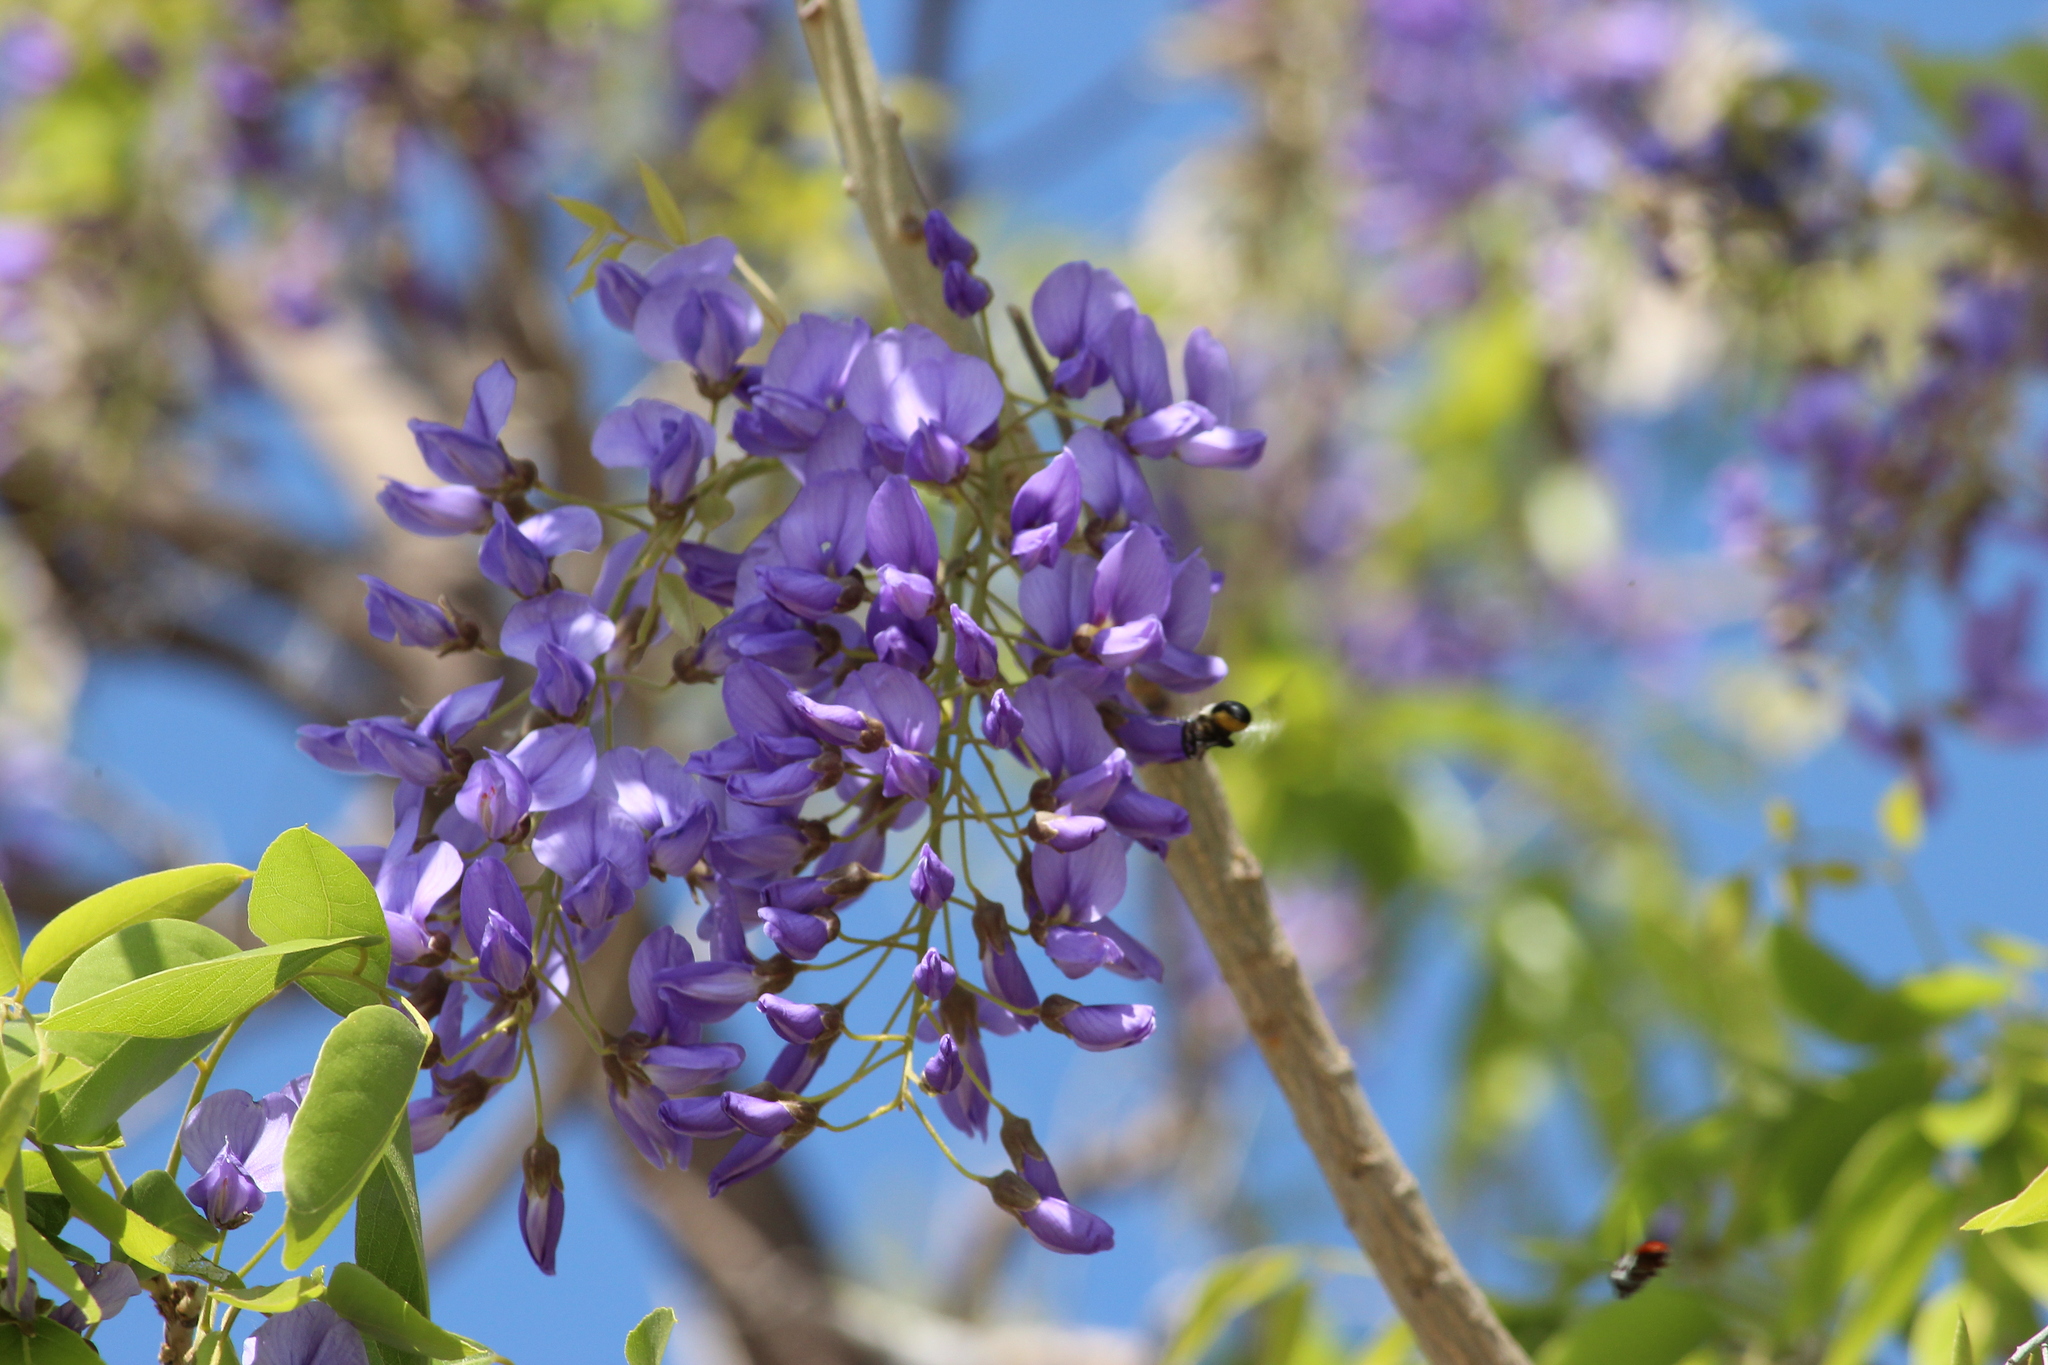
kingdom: Animalia
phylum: Arthropoda
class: Insecta
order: Hymenoptera
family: Apidae
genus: Xylocopa
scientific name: Xylocopa caffra
